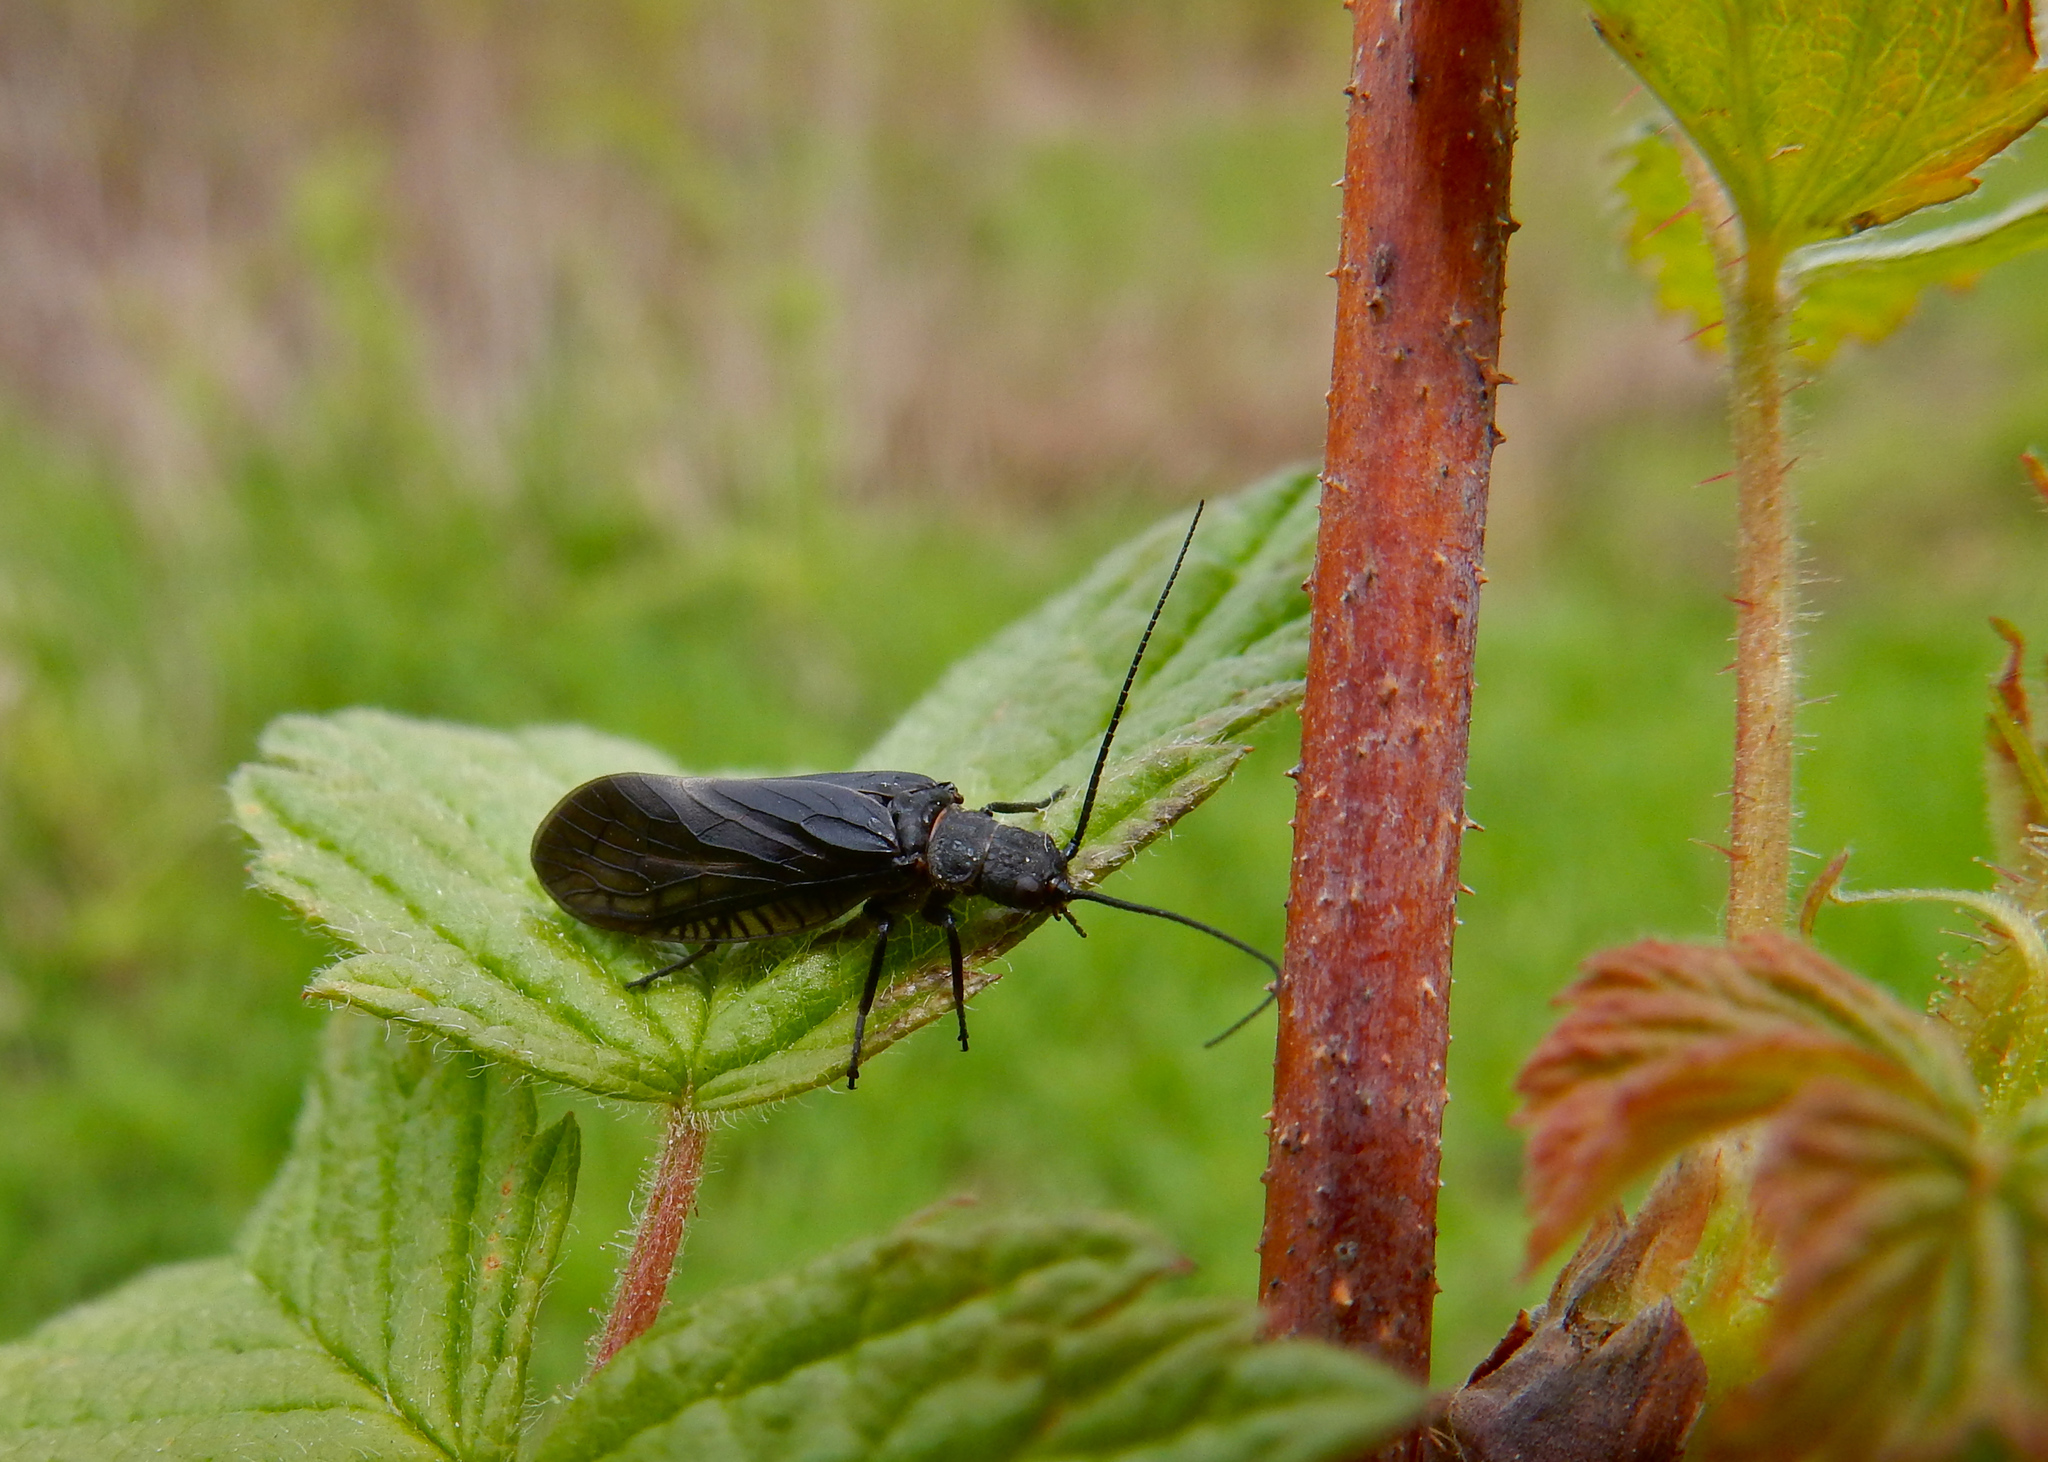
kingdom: Animalia
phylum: Arthropoda
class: Insecta
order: Megaloptera
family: Sialidae
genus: Sialis
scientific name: Sialis
